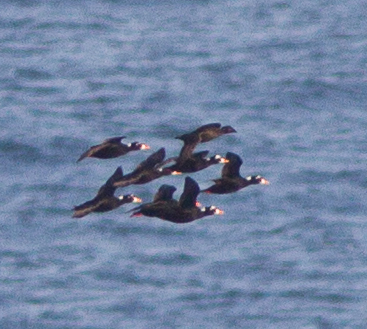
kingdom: Animalia
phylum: Chordata
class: Aves
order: Anseriformes
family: Anatidae
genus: Melanitta
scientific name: Melanitta perspicillata
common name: Surf scoter
